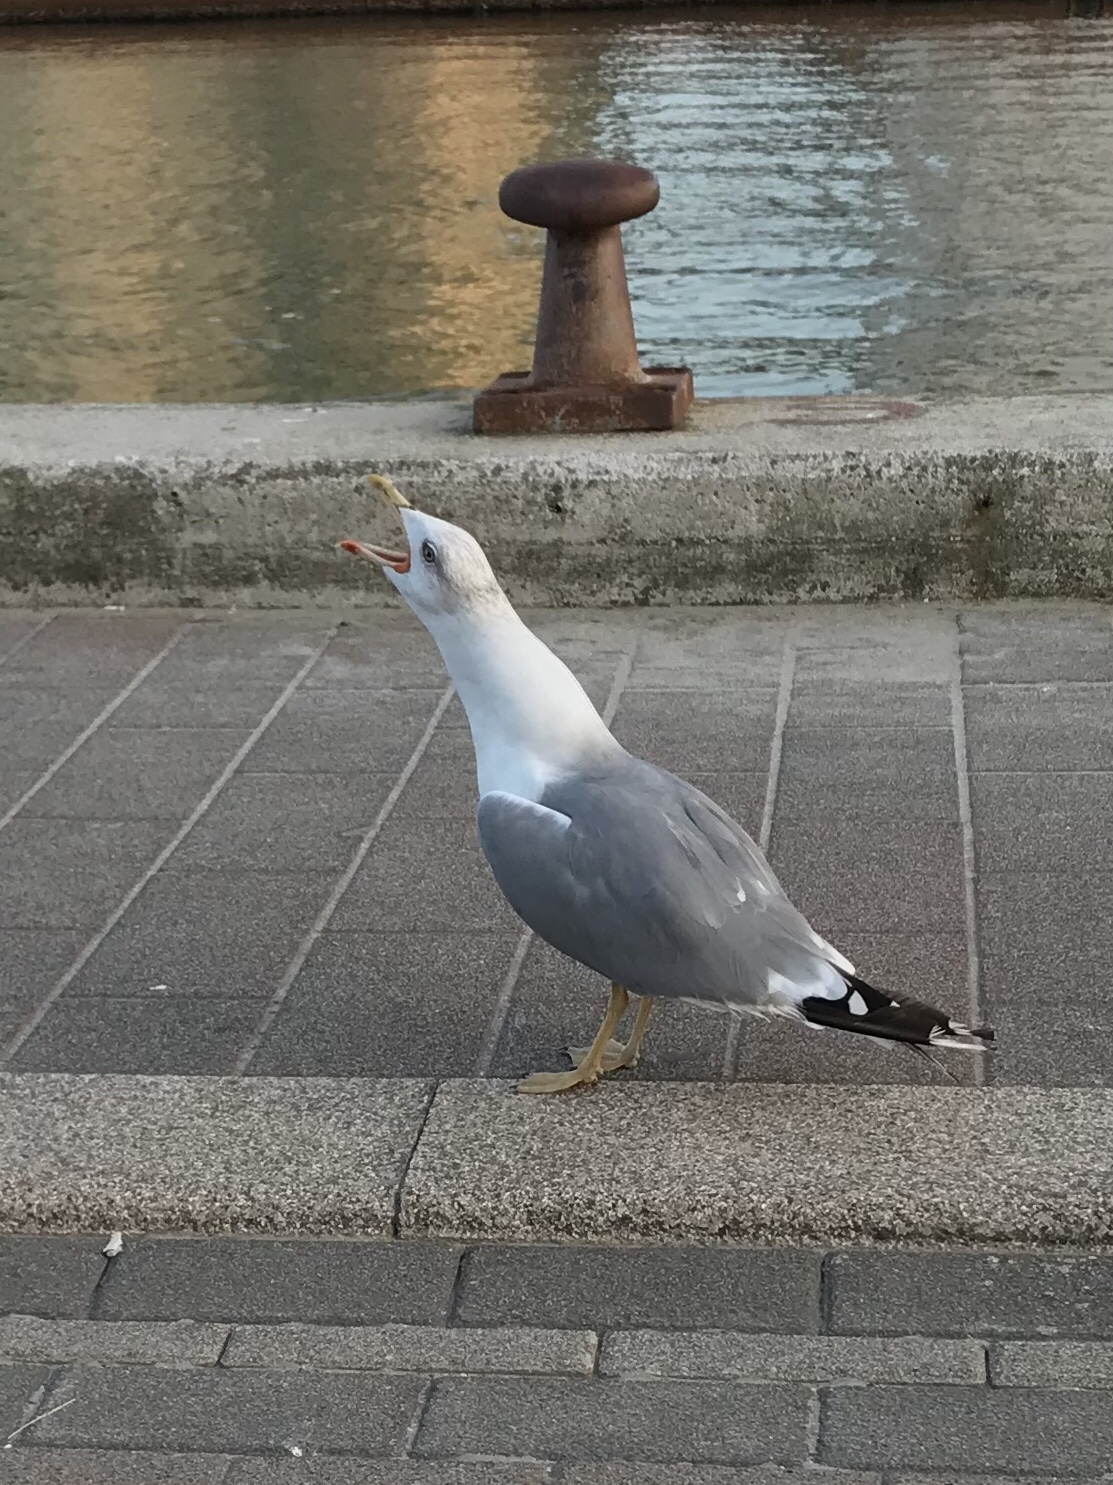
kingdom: Animalia
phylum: Chordata
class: Aves
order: Charadriiformes
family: Laridae
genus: Larus
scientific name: Larus michahellis
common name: Yellow-legged gull
